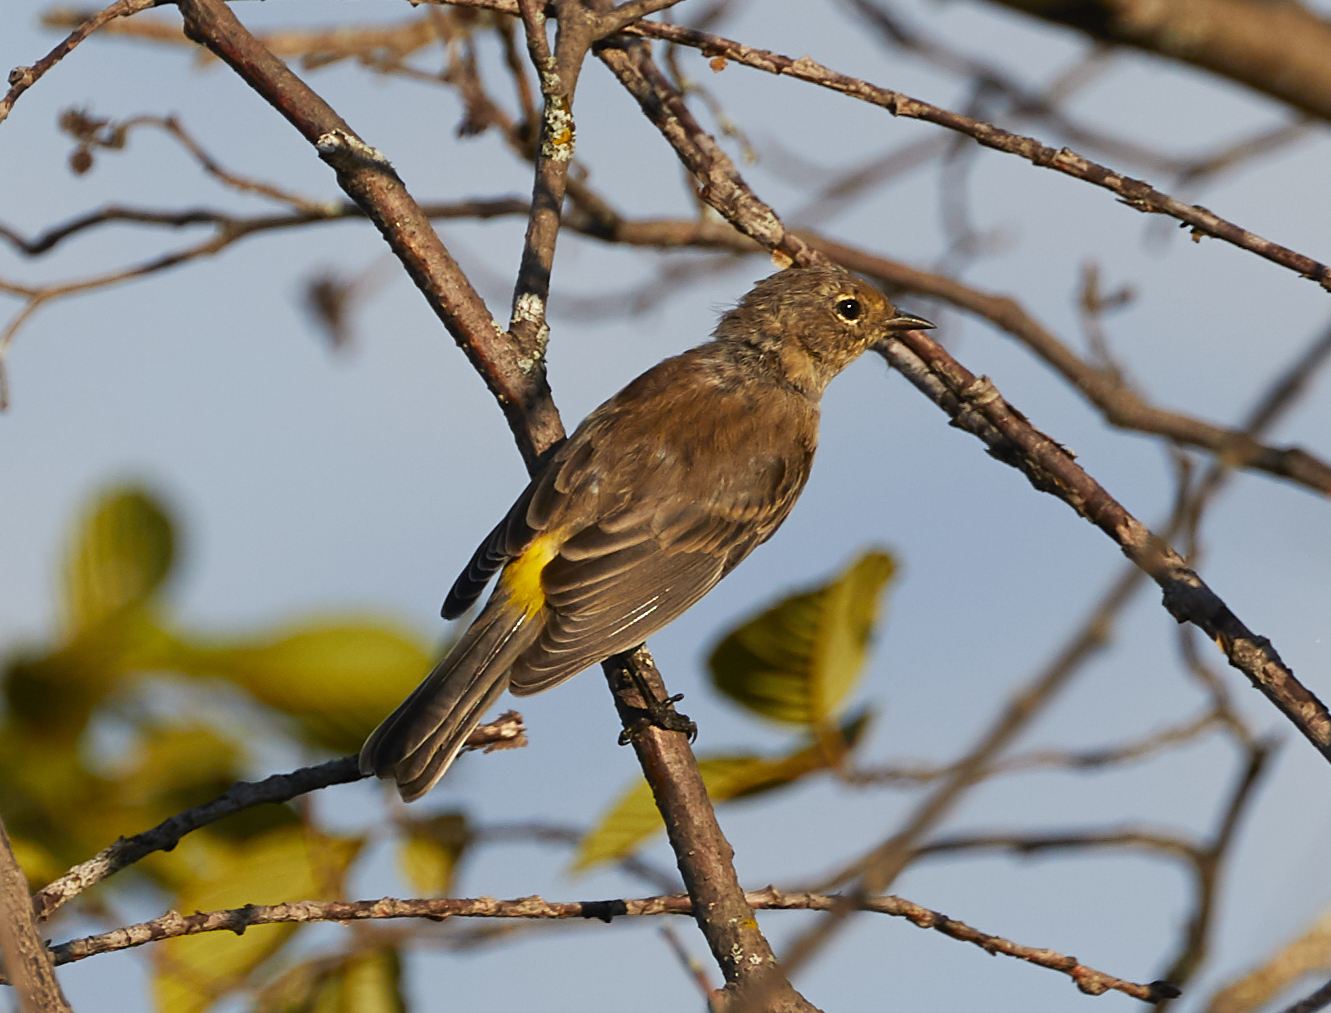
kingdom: Animalia
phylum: Chordata
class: Aves
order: Passeriformes
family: Parulidae
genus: Setophaga
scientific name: Setophaga coronata
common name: Myrtle warbler
